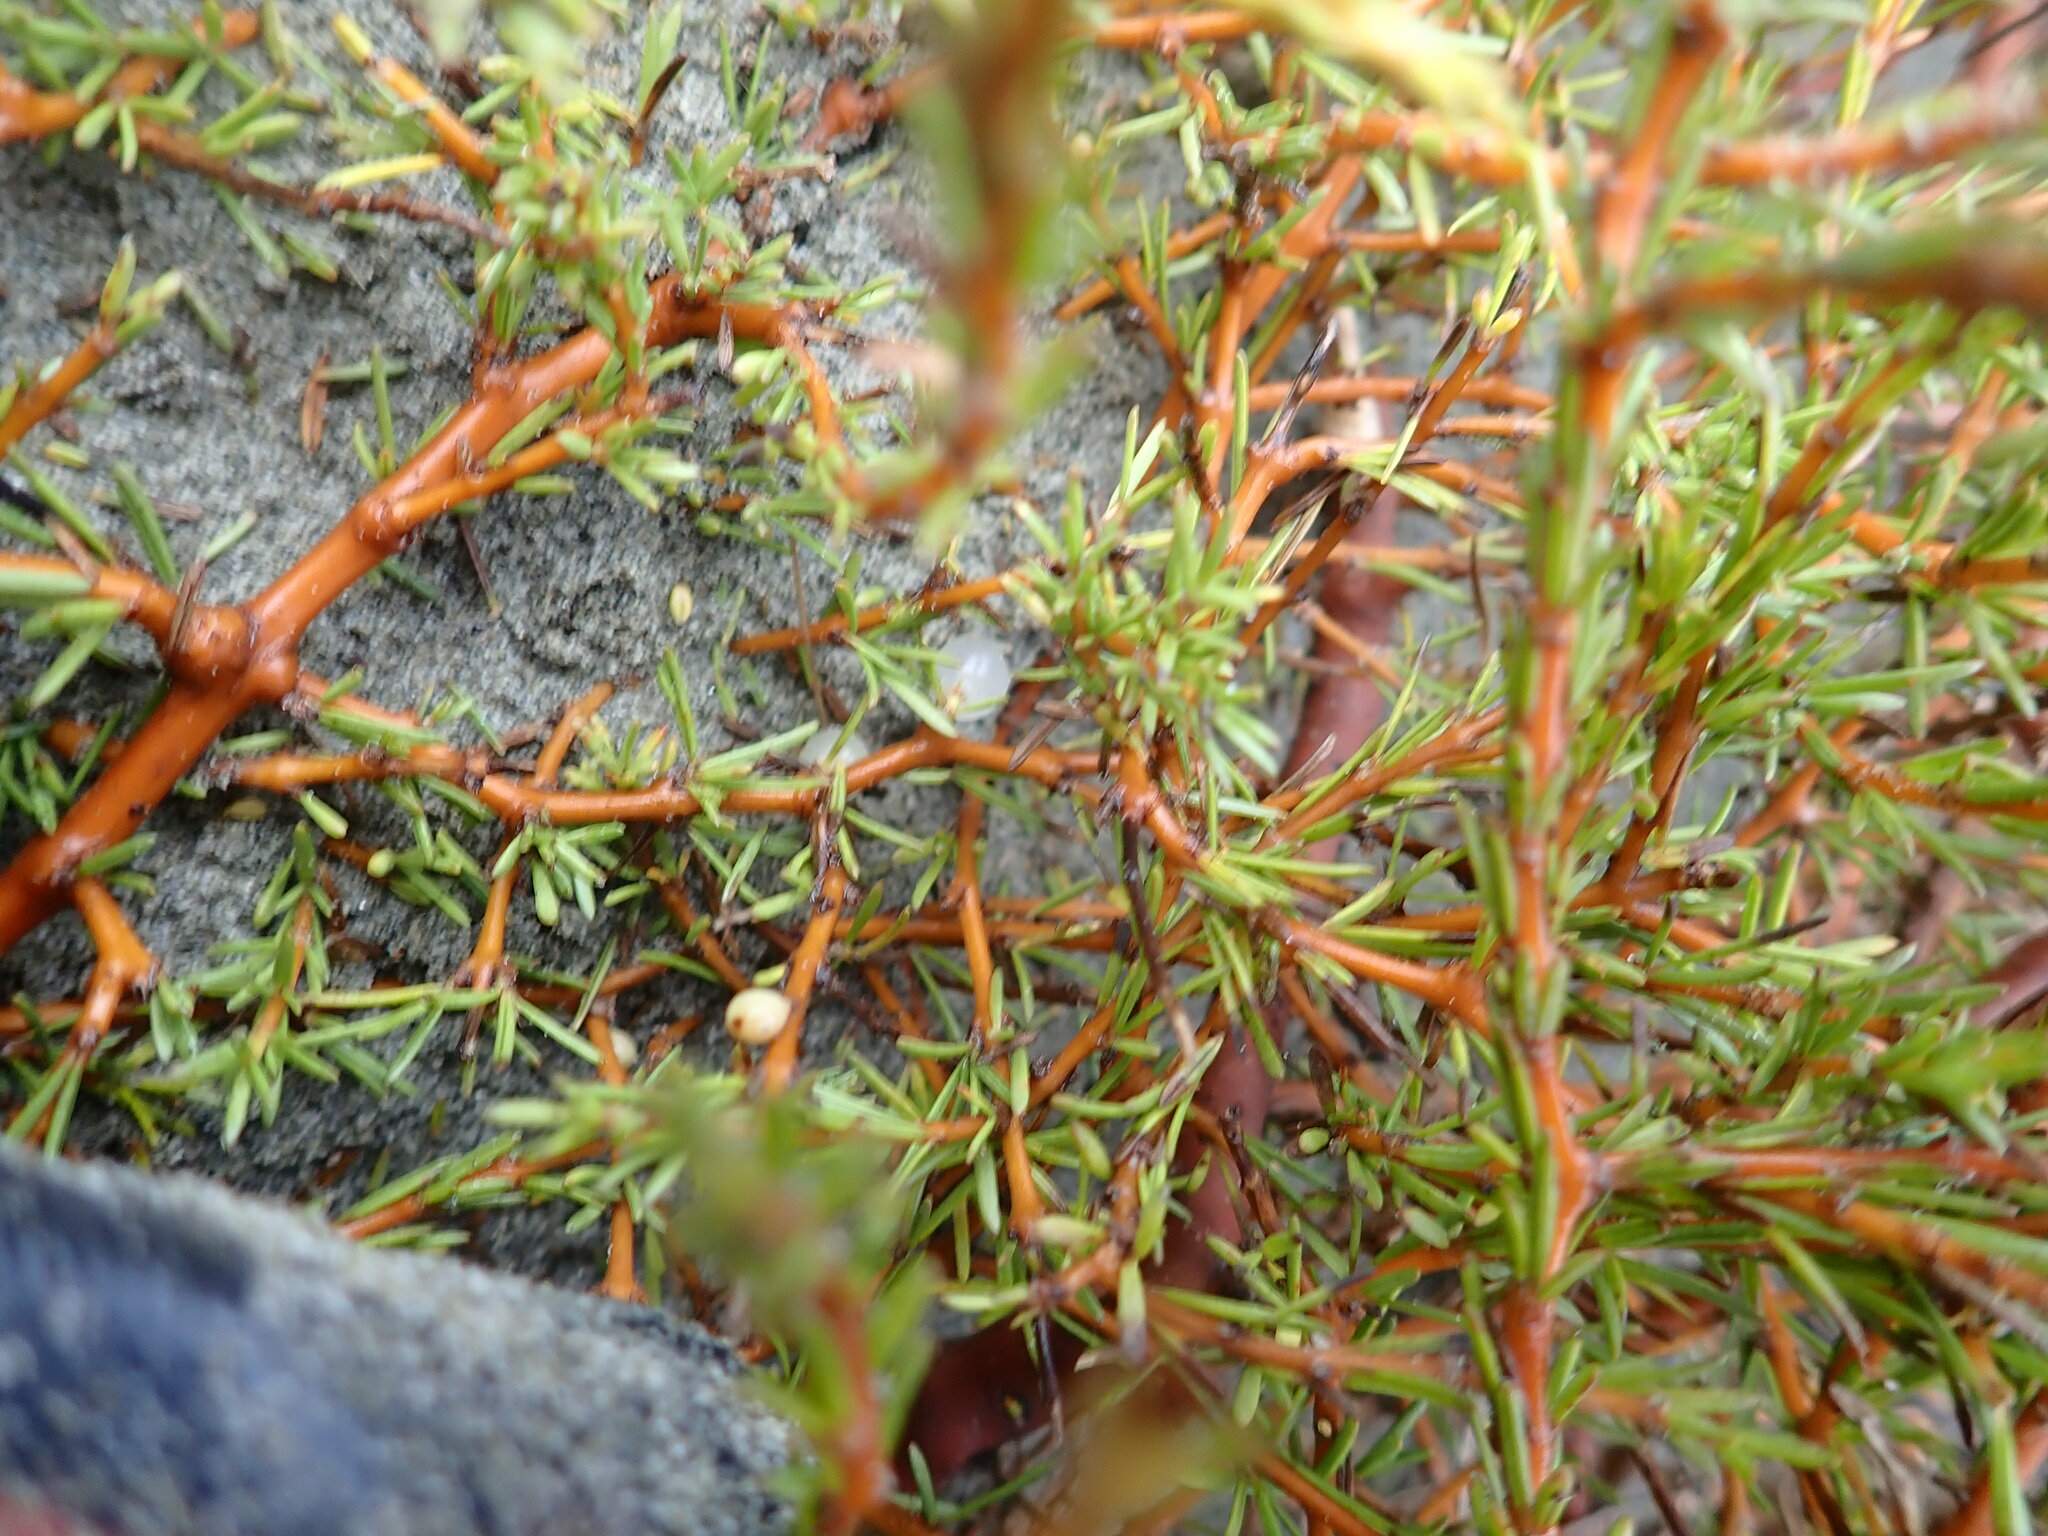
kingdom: Plantae
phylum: Tracheophyta
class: Magnoliopsida
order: Gentianales
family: Rubiaceae
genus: Coprosma
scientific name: Coprosma acerosa
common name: Sand coprosma
